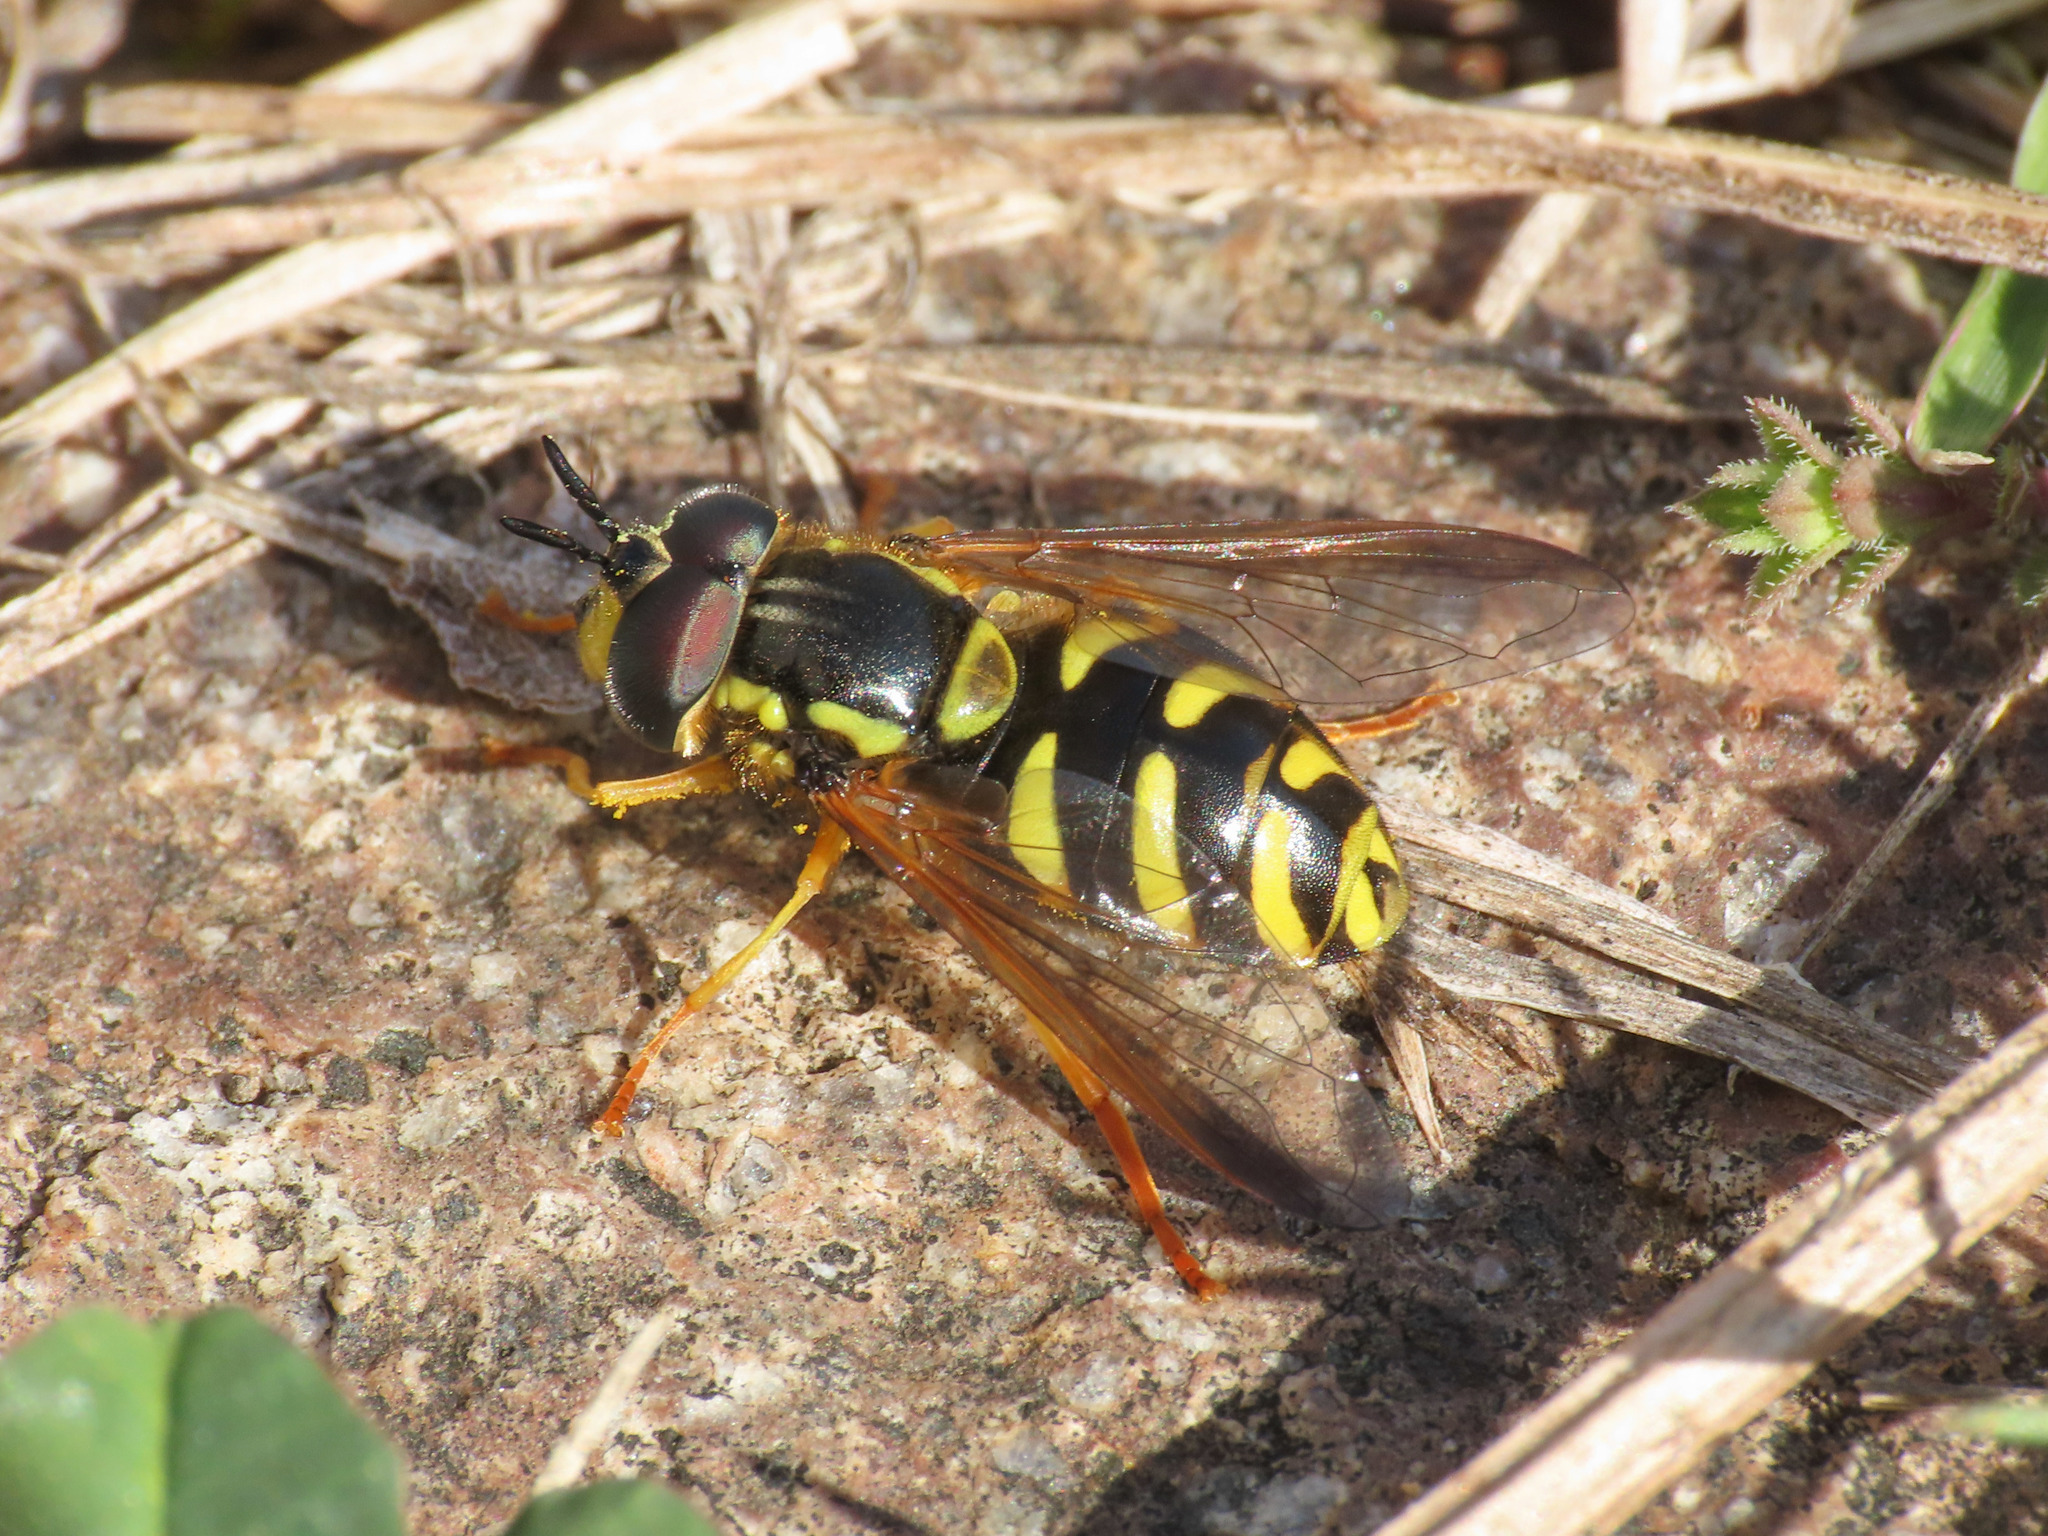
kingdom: Animalia
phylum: Arthropoda
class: Insecta
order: Diptera
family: Syrphidae
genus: Chrysotoxum
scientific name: Chrysotoxum intermedium
